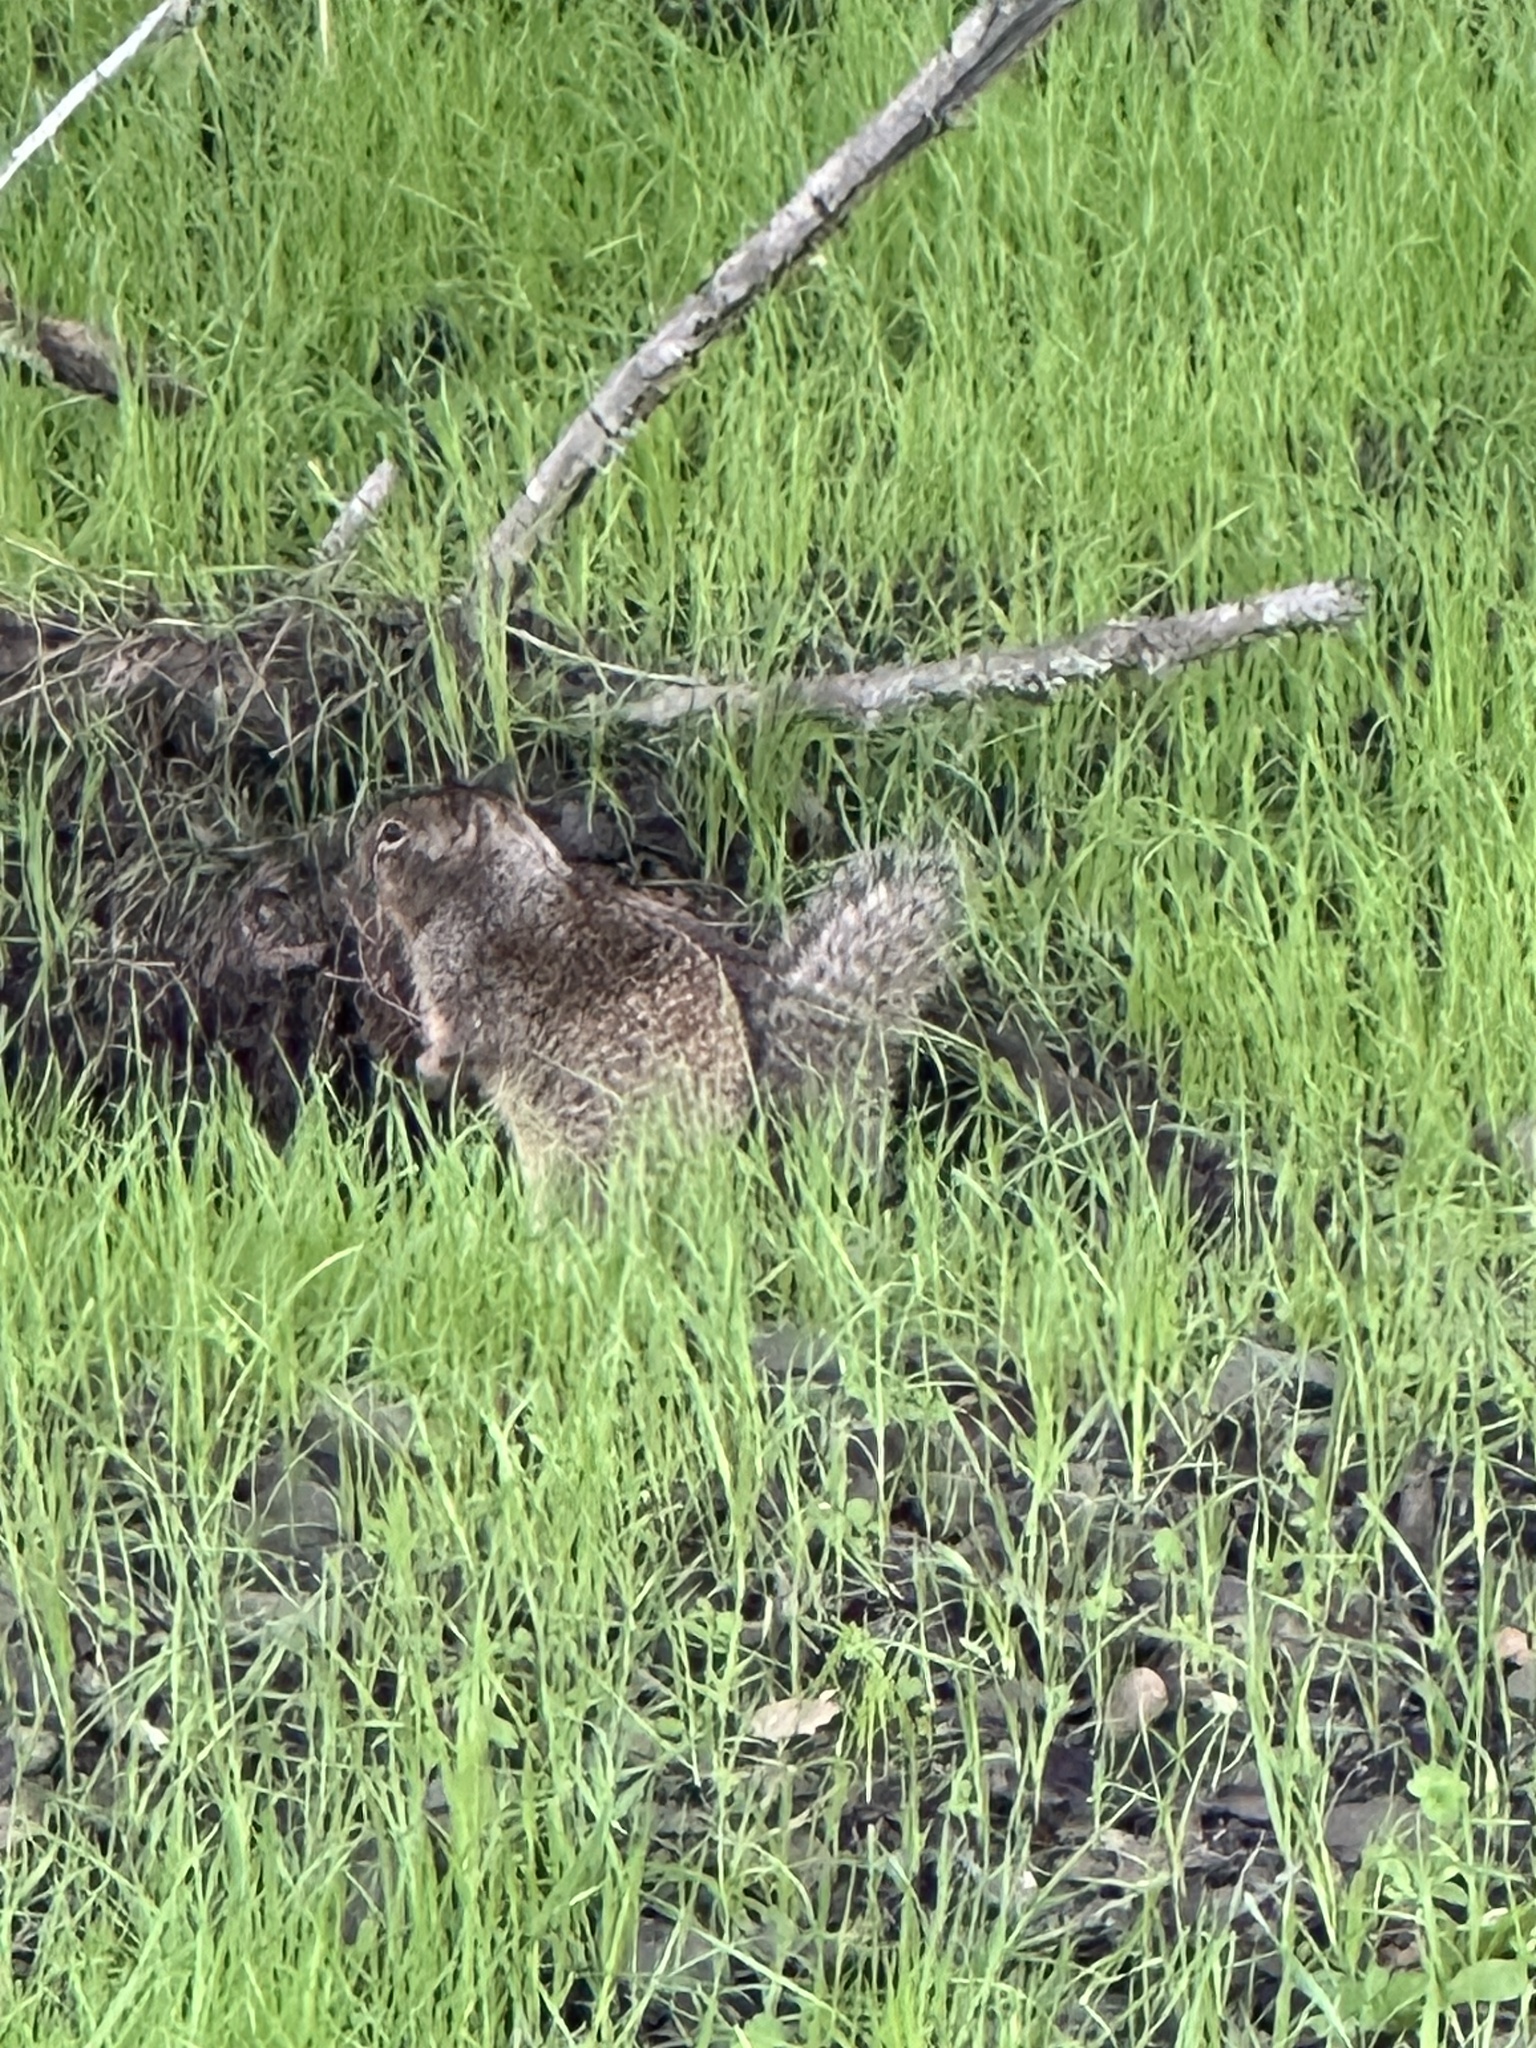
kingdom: Animalia
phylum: Chordata
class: Mammalia
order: Rodentia
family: Sciuridae
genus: Otospermophilus
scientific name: Otospermophilus beecheyi
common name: California ground squirrel
